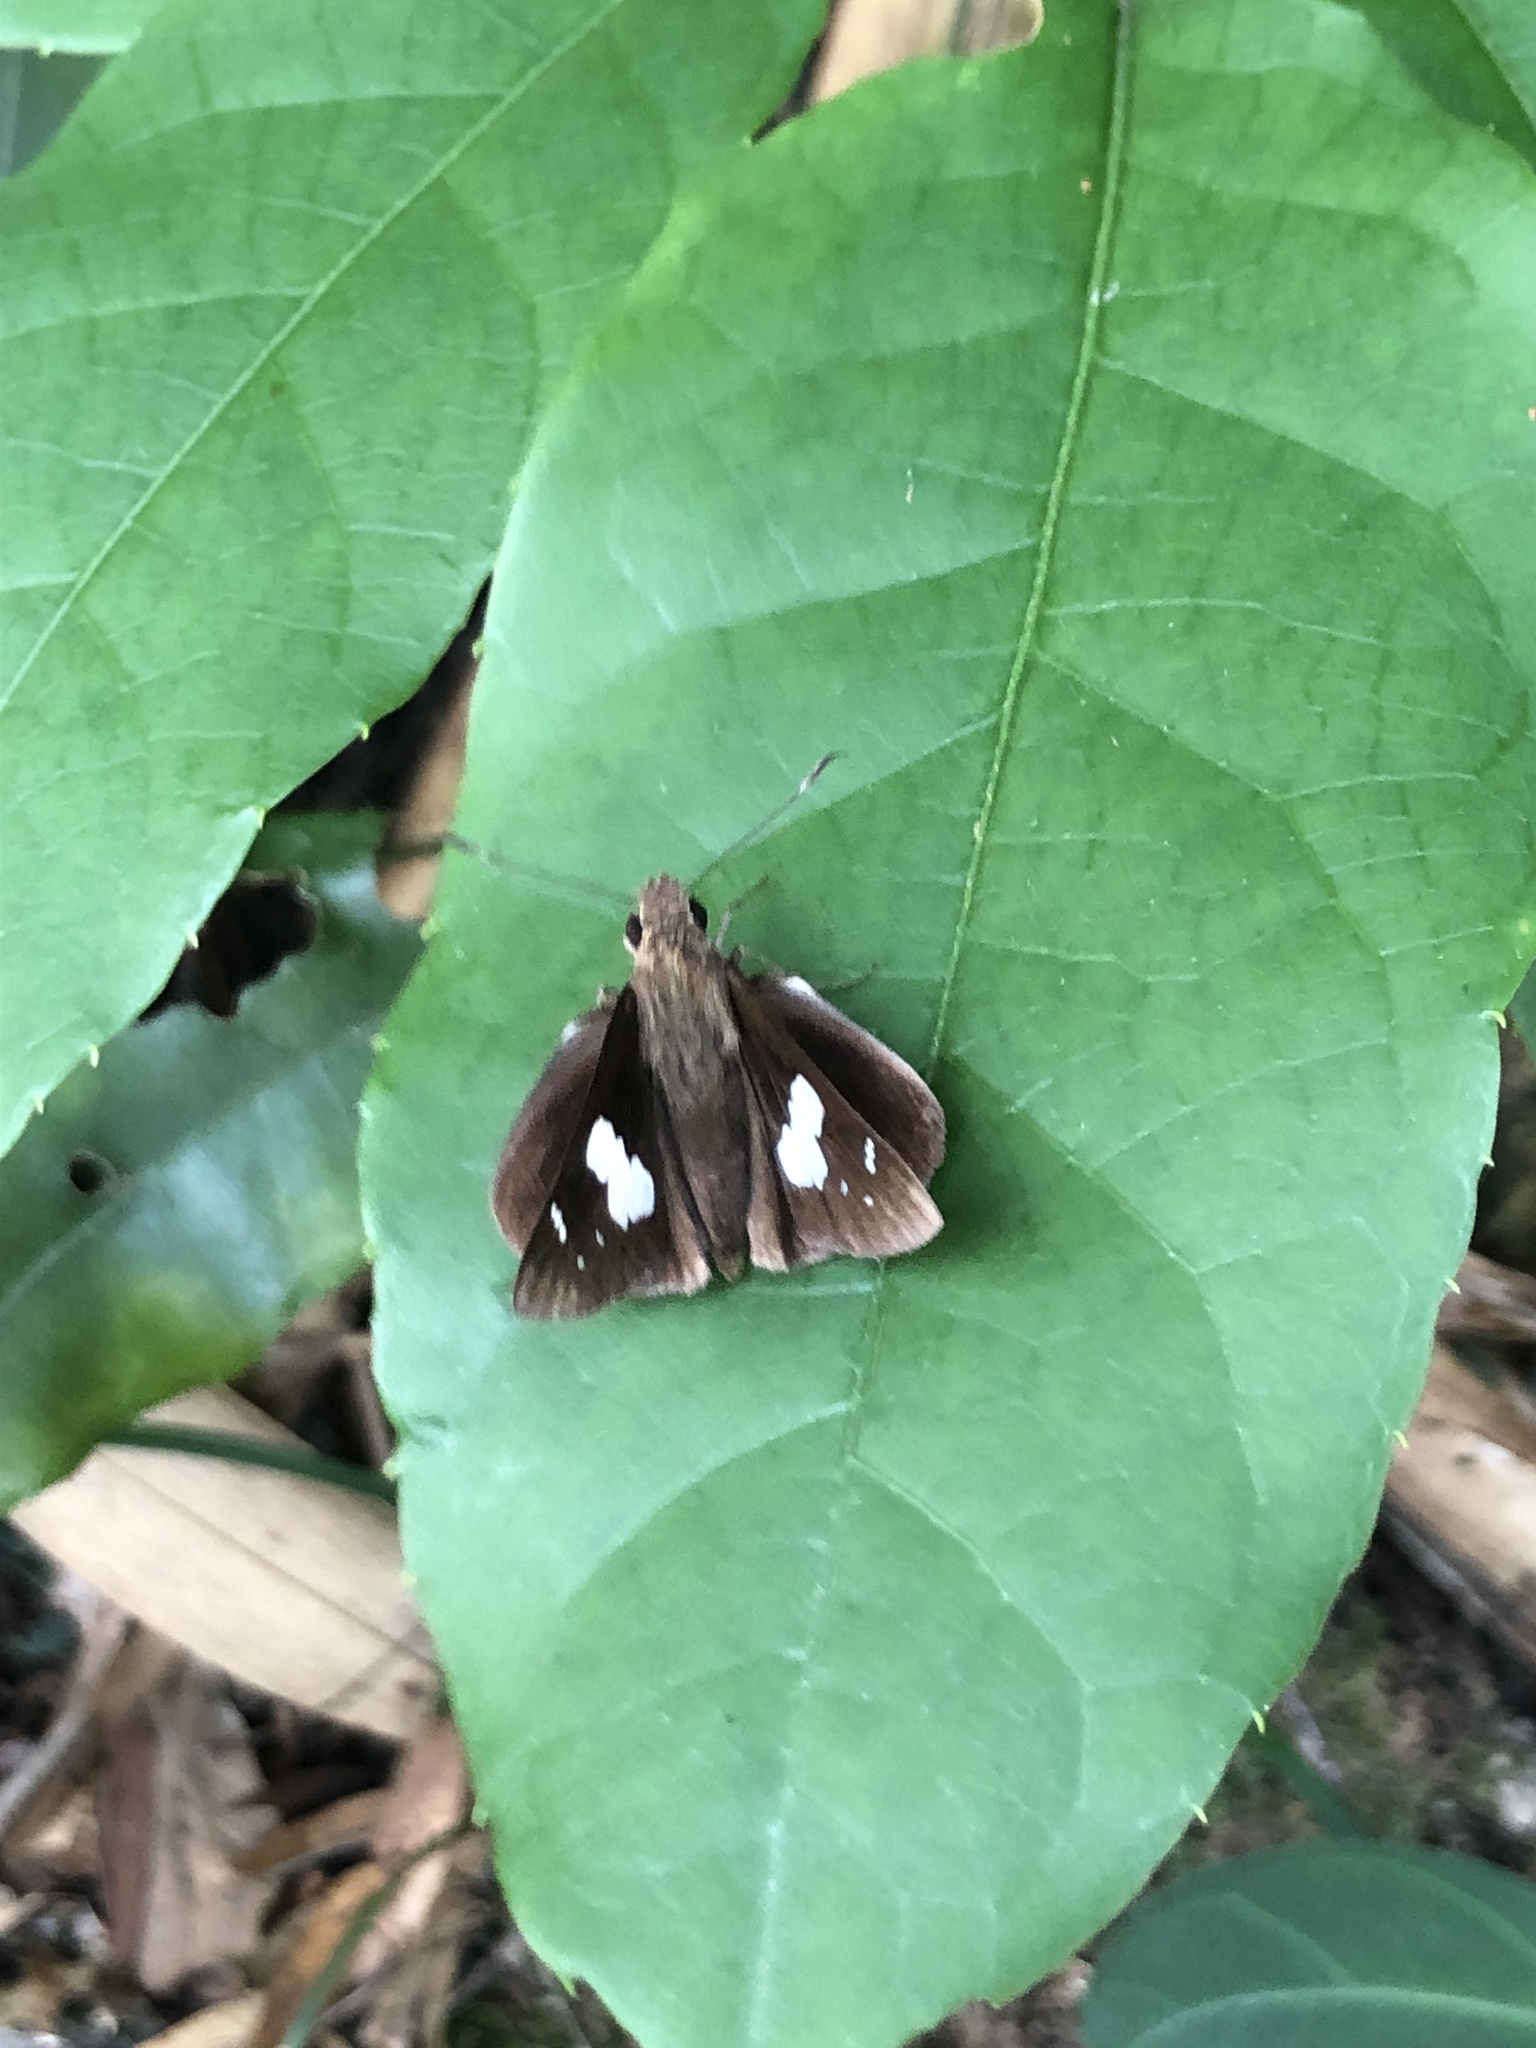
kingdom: Animalia
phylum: Arthropoda
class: Insecta
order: Lepidoptera
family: Hesperiidae
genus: Notocrypta
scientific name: Notocrypta curvifascia
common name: Restricted demon
